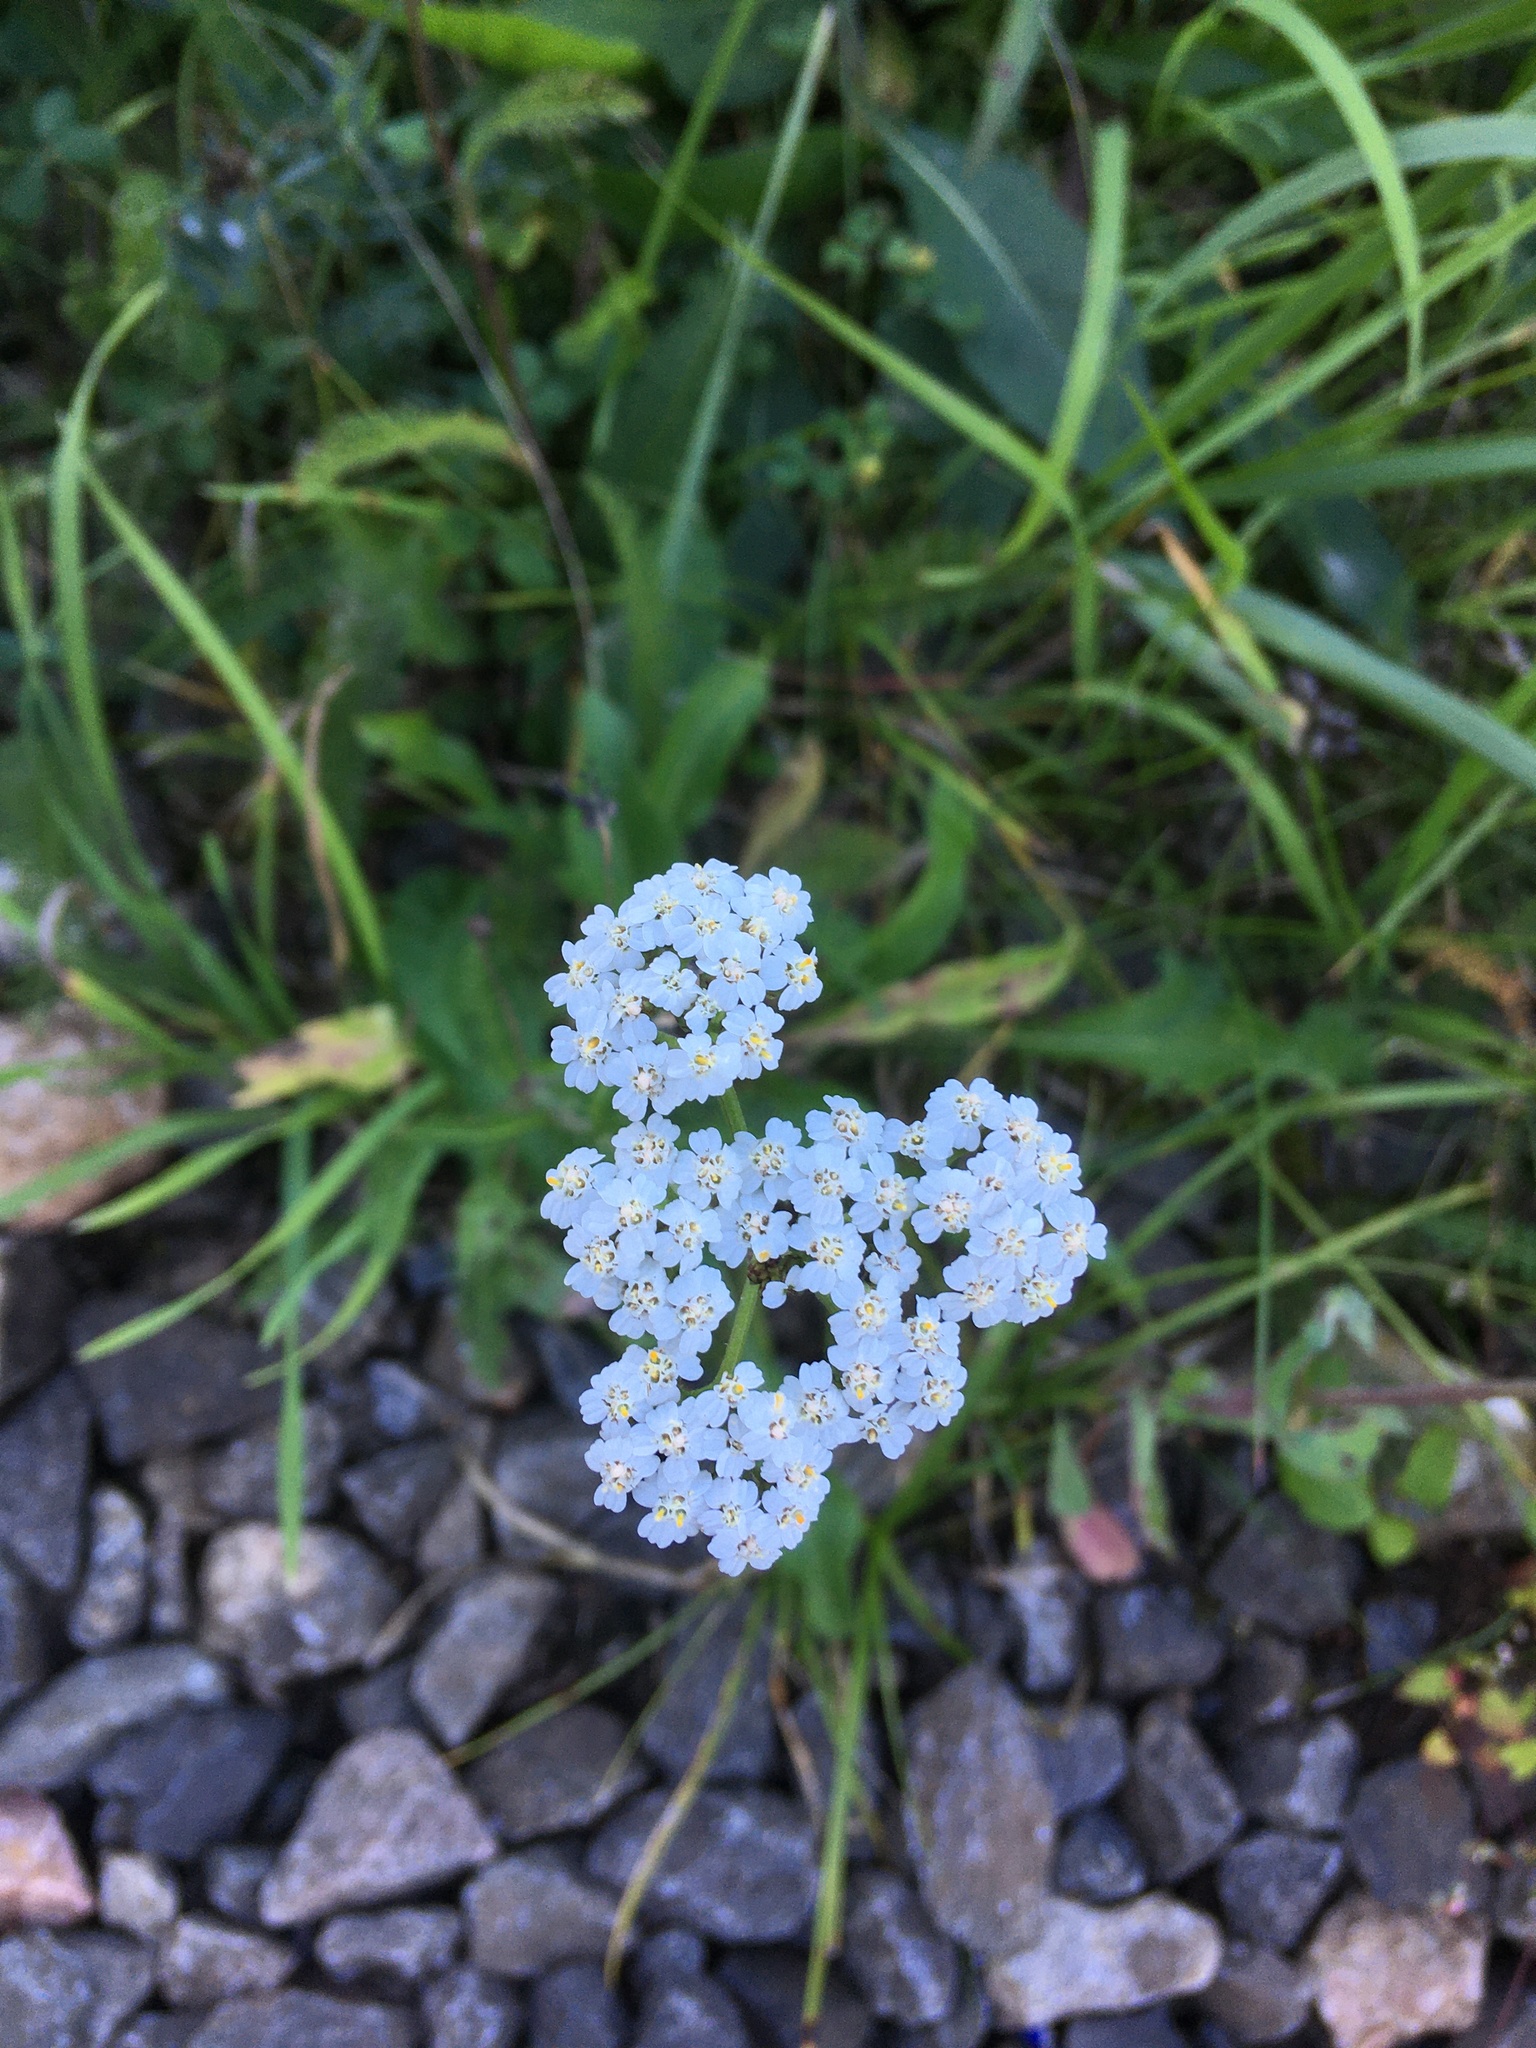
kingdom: Plantae
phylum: Tracheophyta
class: Magnoliopsida
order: Asterales
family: Asteraceae
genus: Achillea
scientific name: Achillea millefolium
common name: Yarrow
